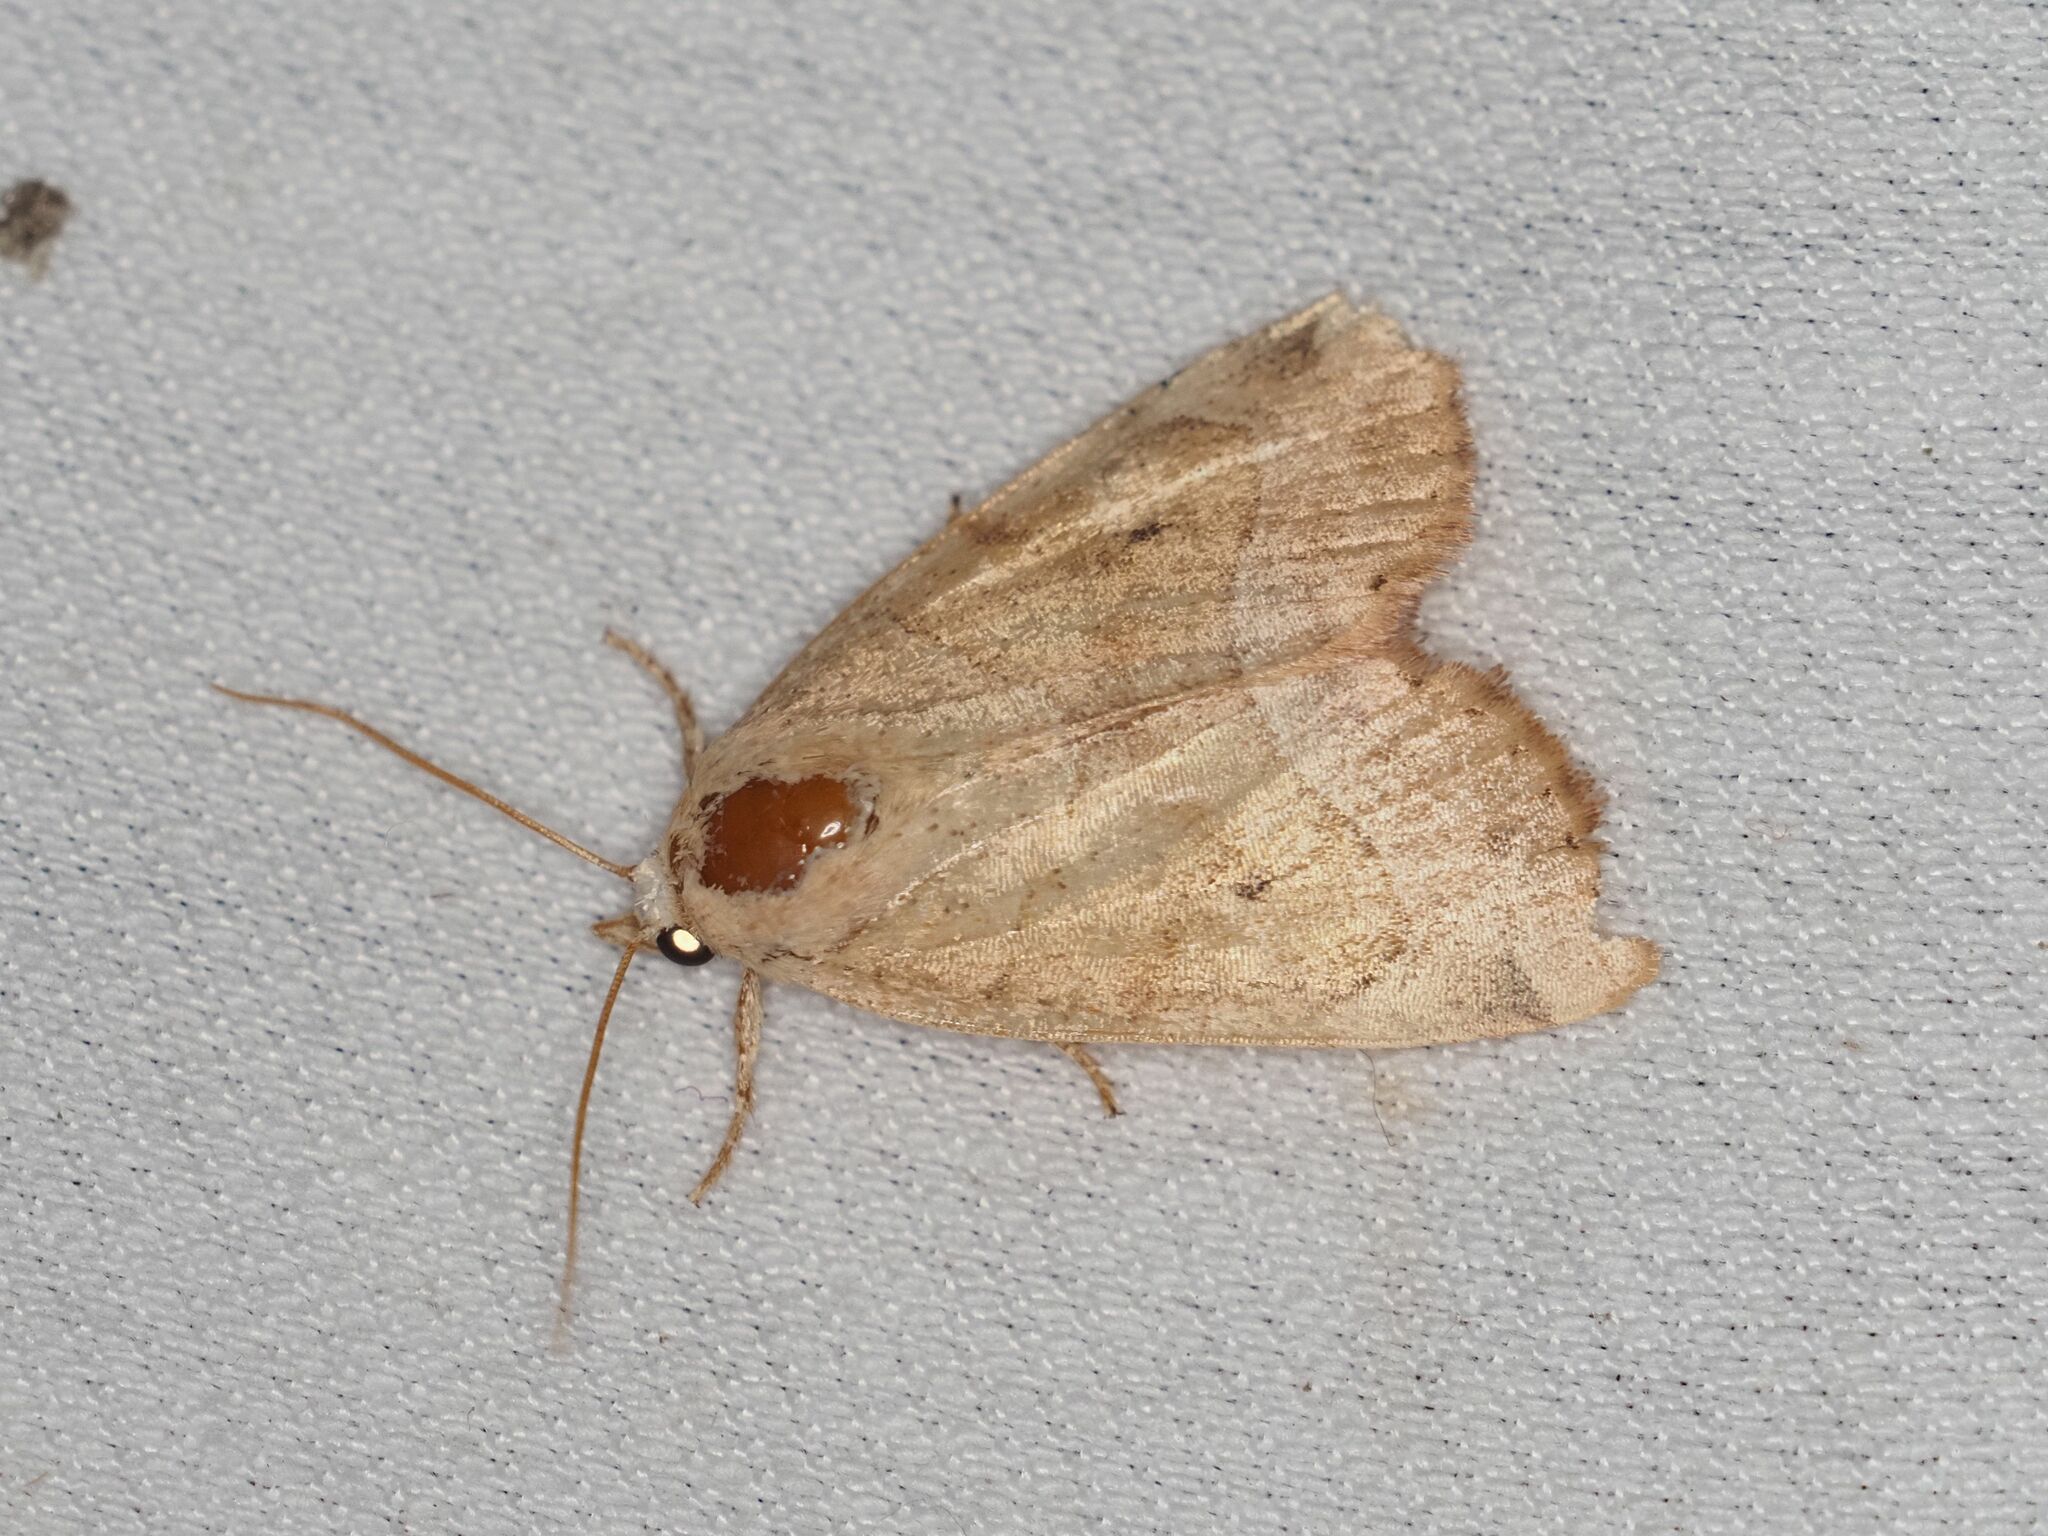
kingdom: Animalia
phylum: Arthropoda
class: Insecta
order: Lepidoptera
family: Noctuidae
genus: Cosmia
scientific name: Cosmia trapezina
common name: Dun-bar
